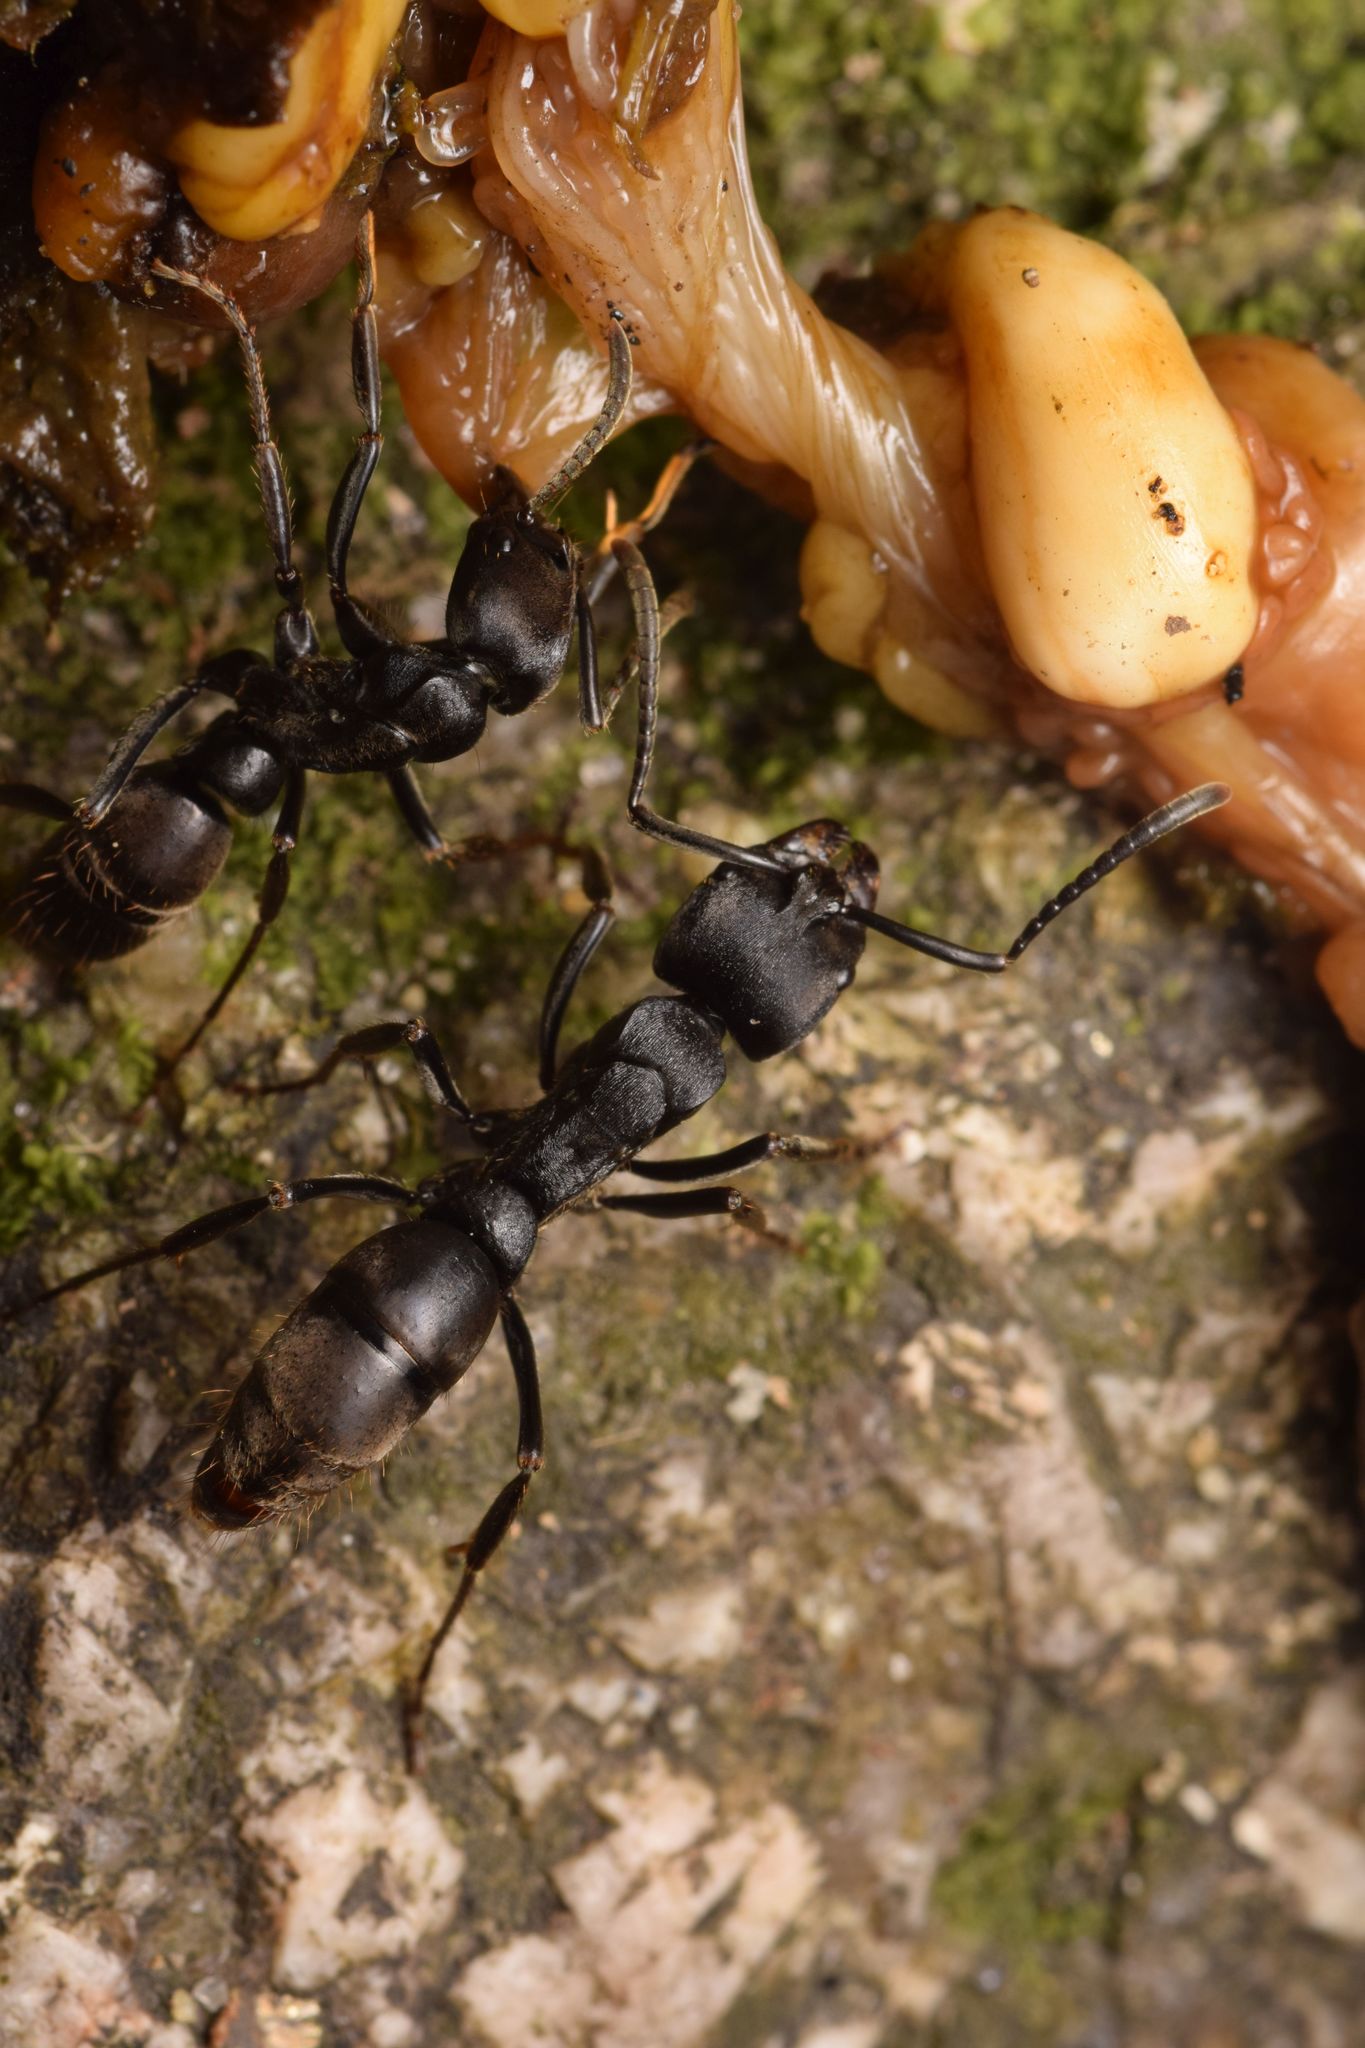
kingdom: Animalia
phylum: Arthropoda
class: Insecta
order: Hymenoptera
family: Formicidae
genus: Pachycondyla
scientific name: Pachycondyla striata
